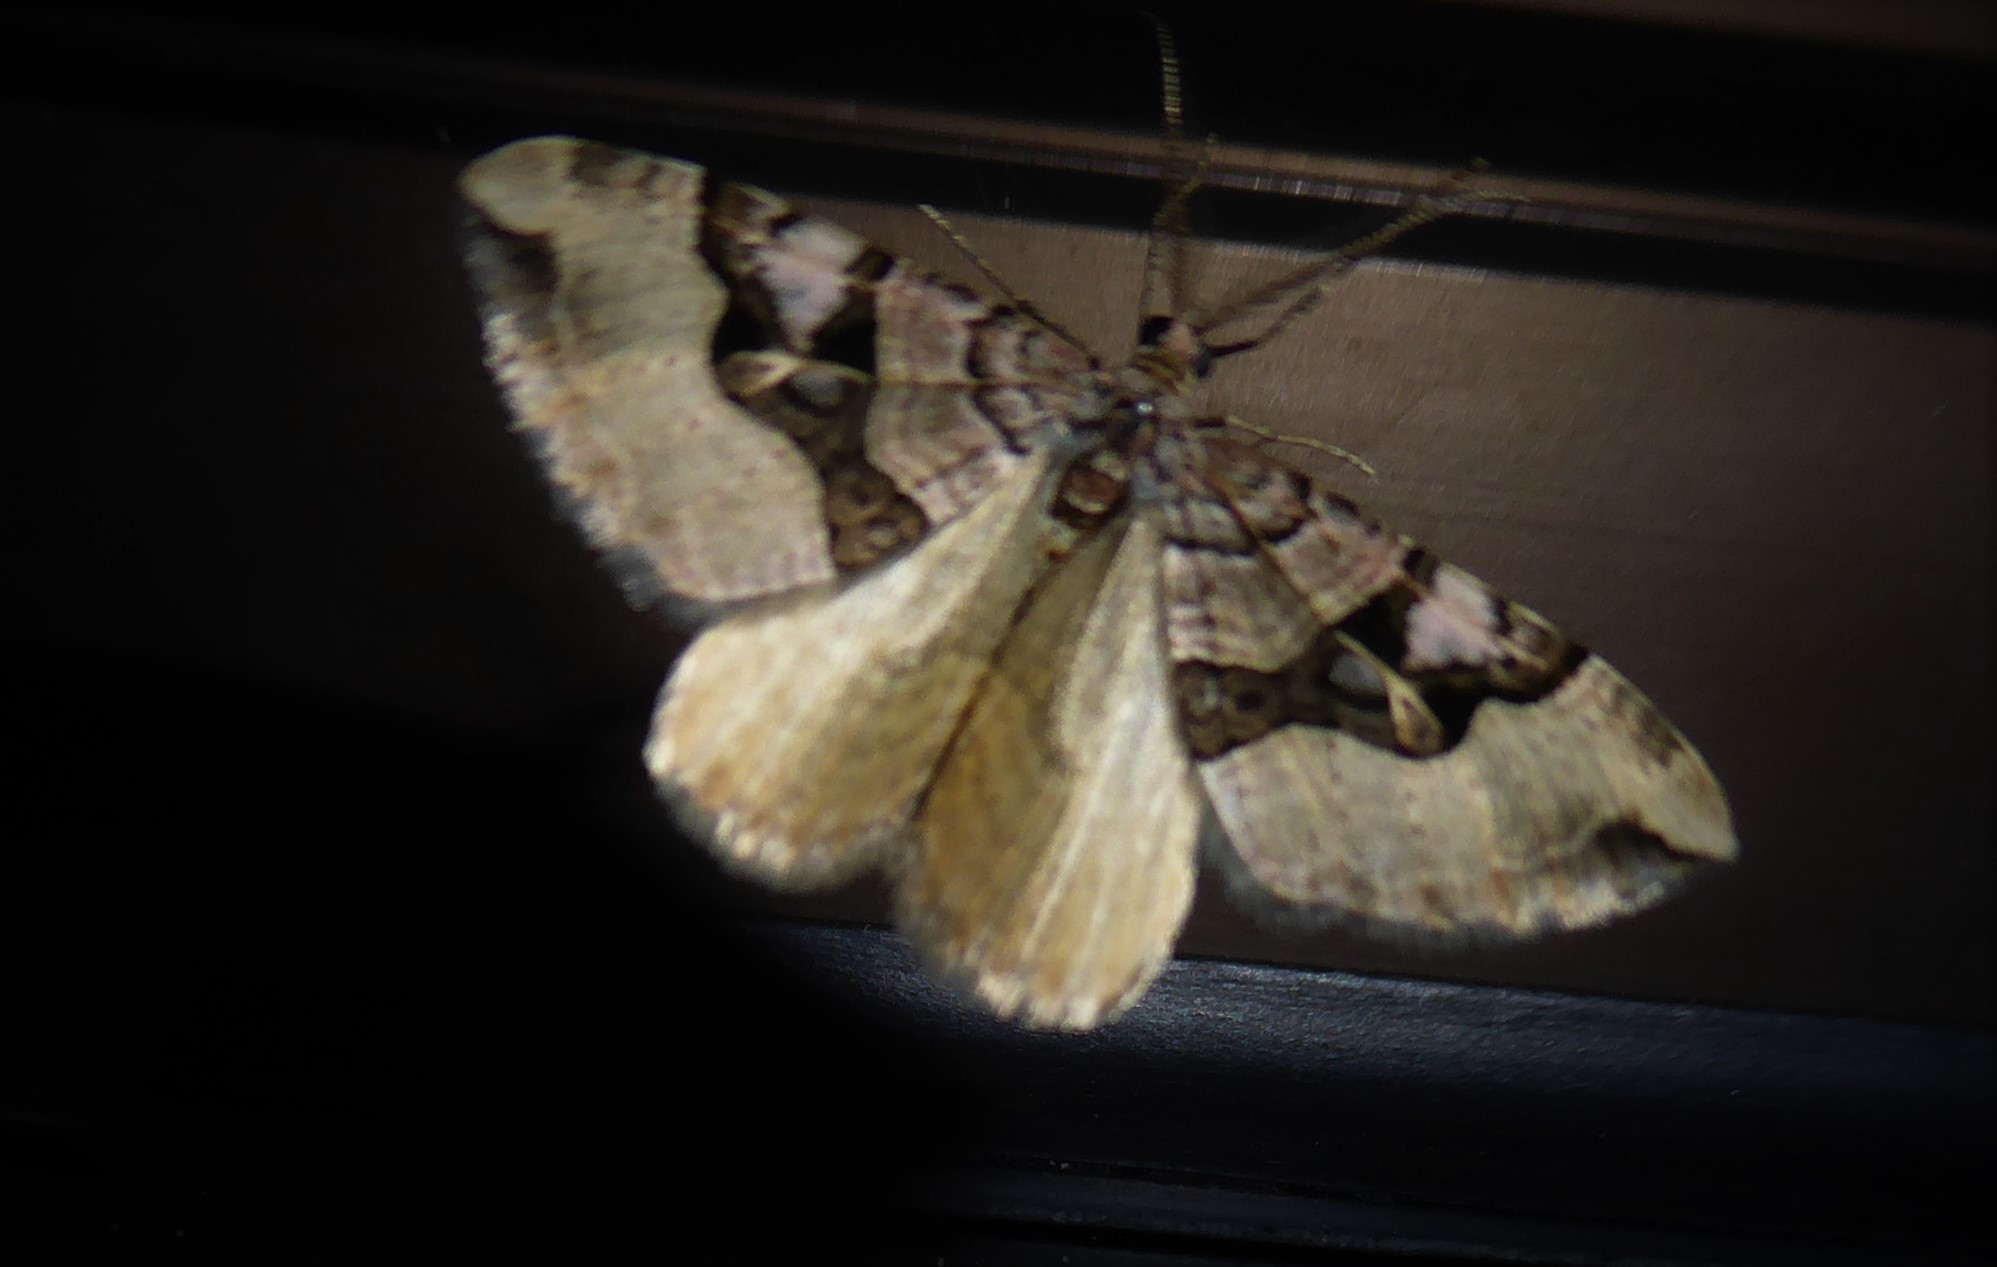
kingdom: Animalia
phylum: Arthropoda
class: Insecta
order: Lepidoptera
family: Geometridae
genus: Xanthorhoe
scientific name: Xanthorhoe semifissata
